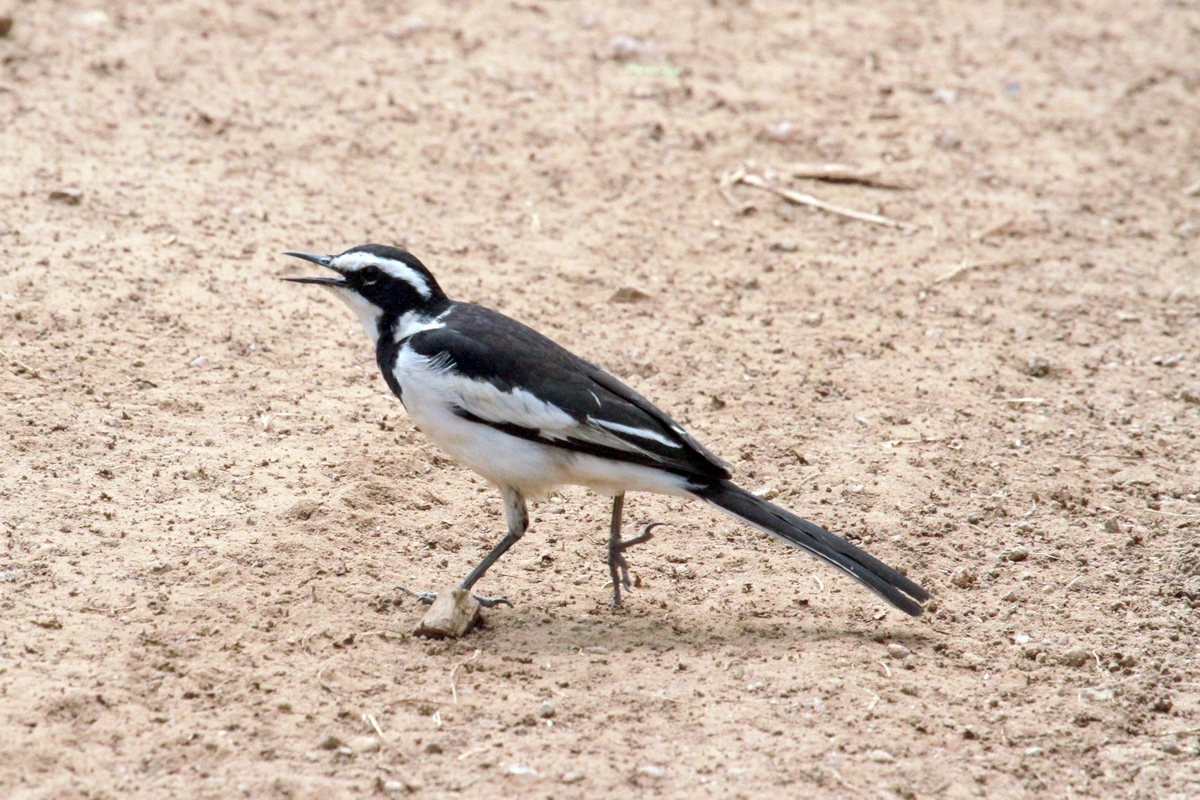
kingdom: Animalia
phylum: Chordata
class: Aves
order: Passeriformes
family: Motacillidae
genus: Motacilla
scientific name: Motacilla aguimp
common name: African pied wagtail
